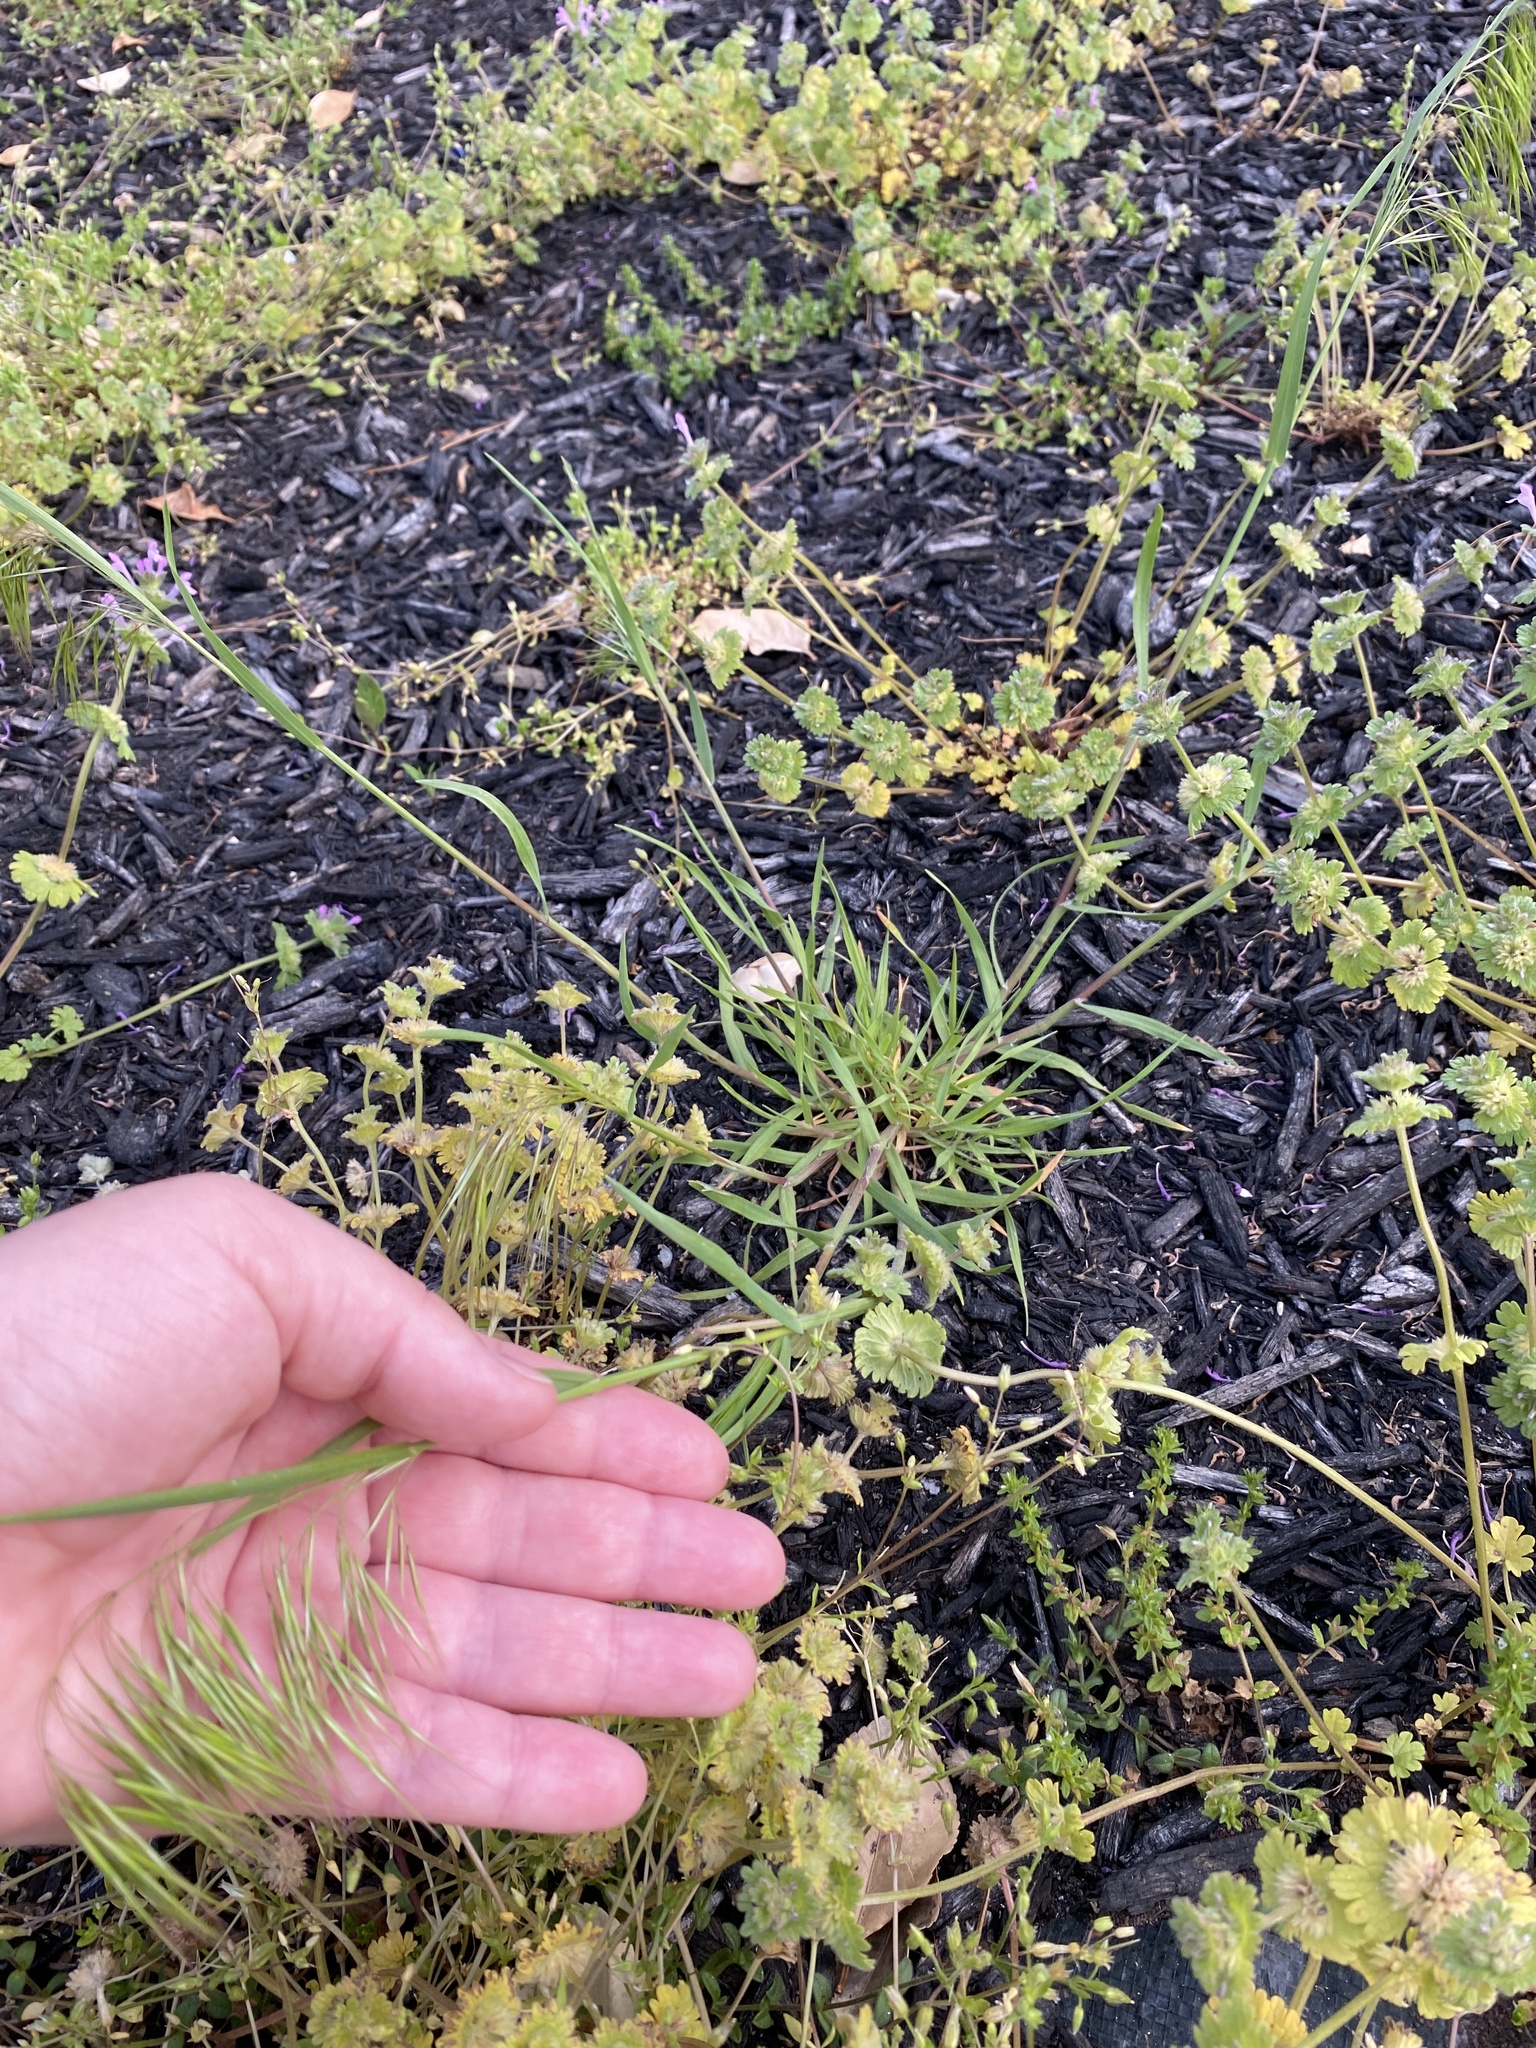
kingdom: Plantae
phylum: Tracheophyta
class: Liliopsida
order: Poales
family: Poaceae
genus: Bromus
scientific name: Bromus tectorum
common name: Cheatgrass
